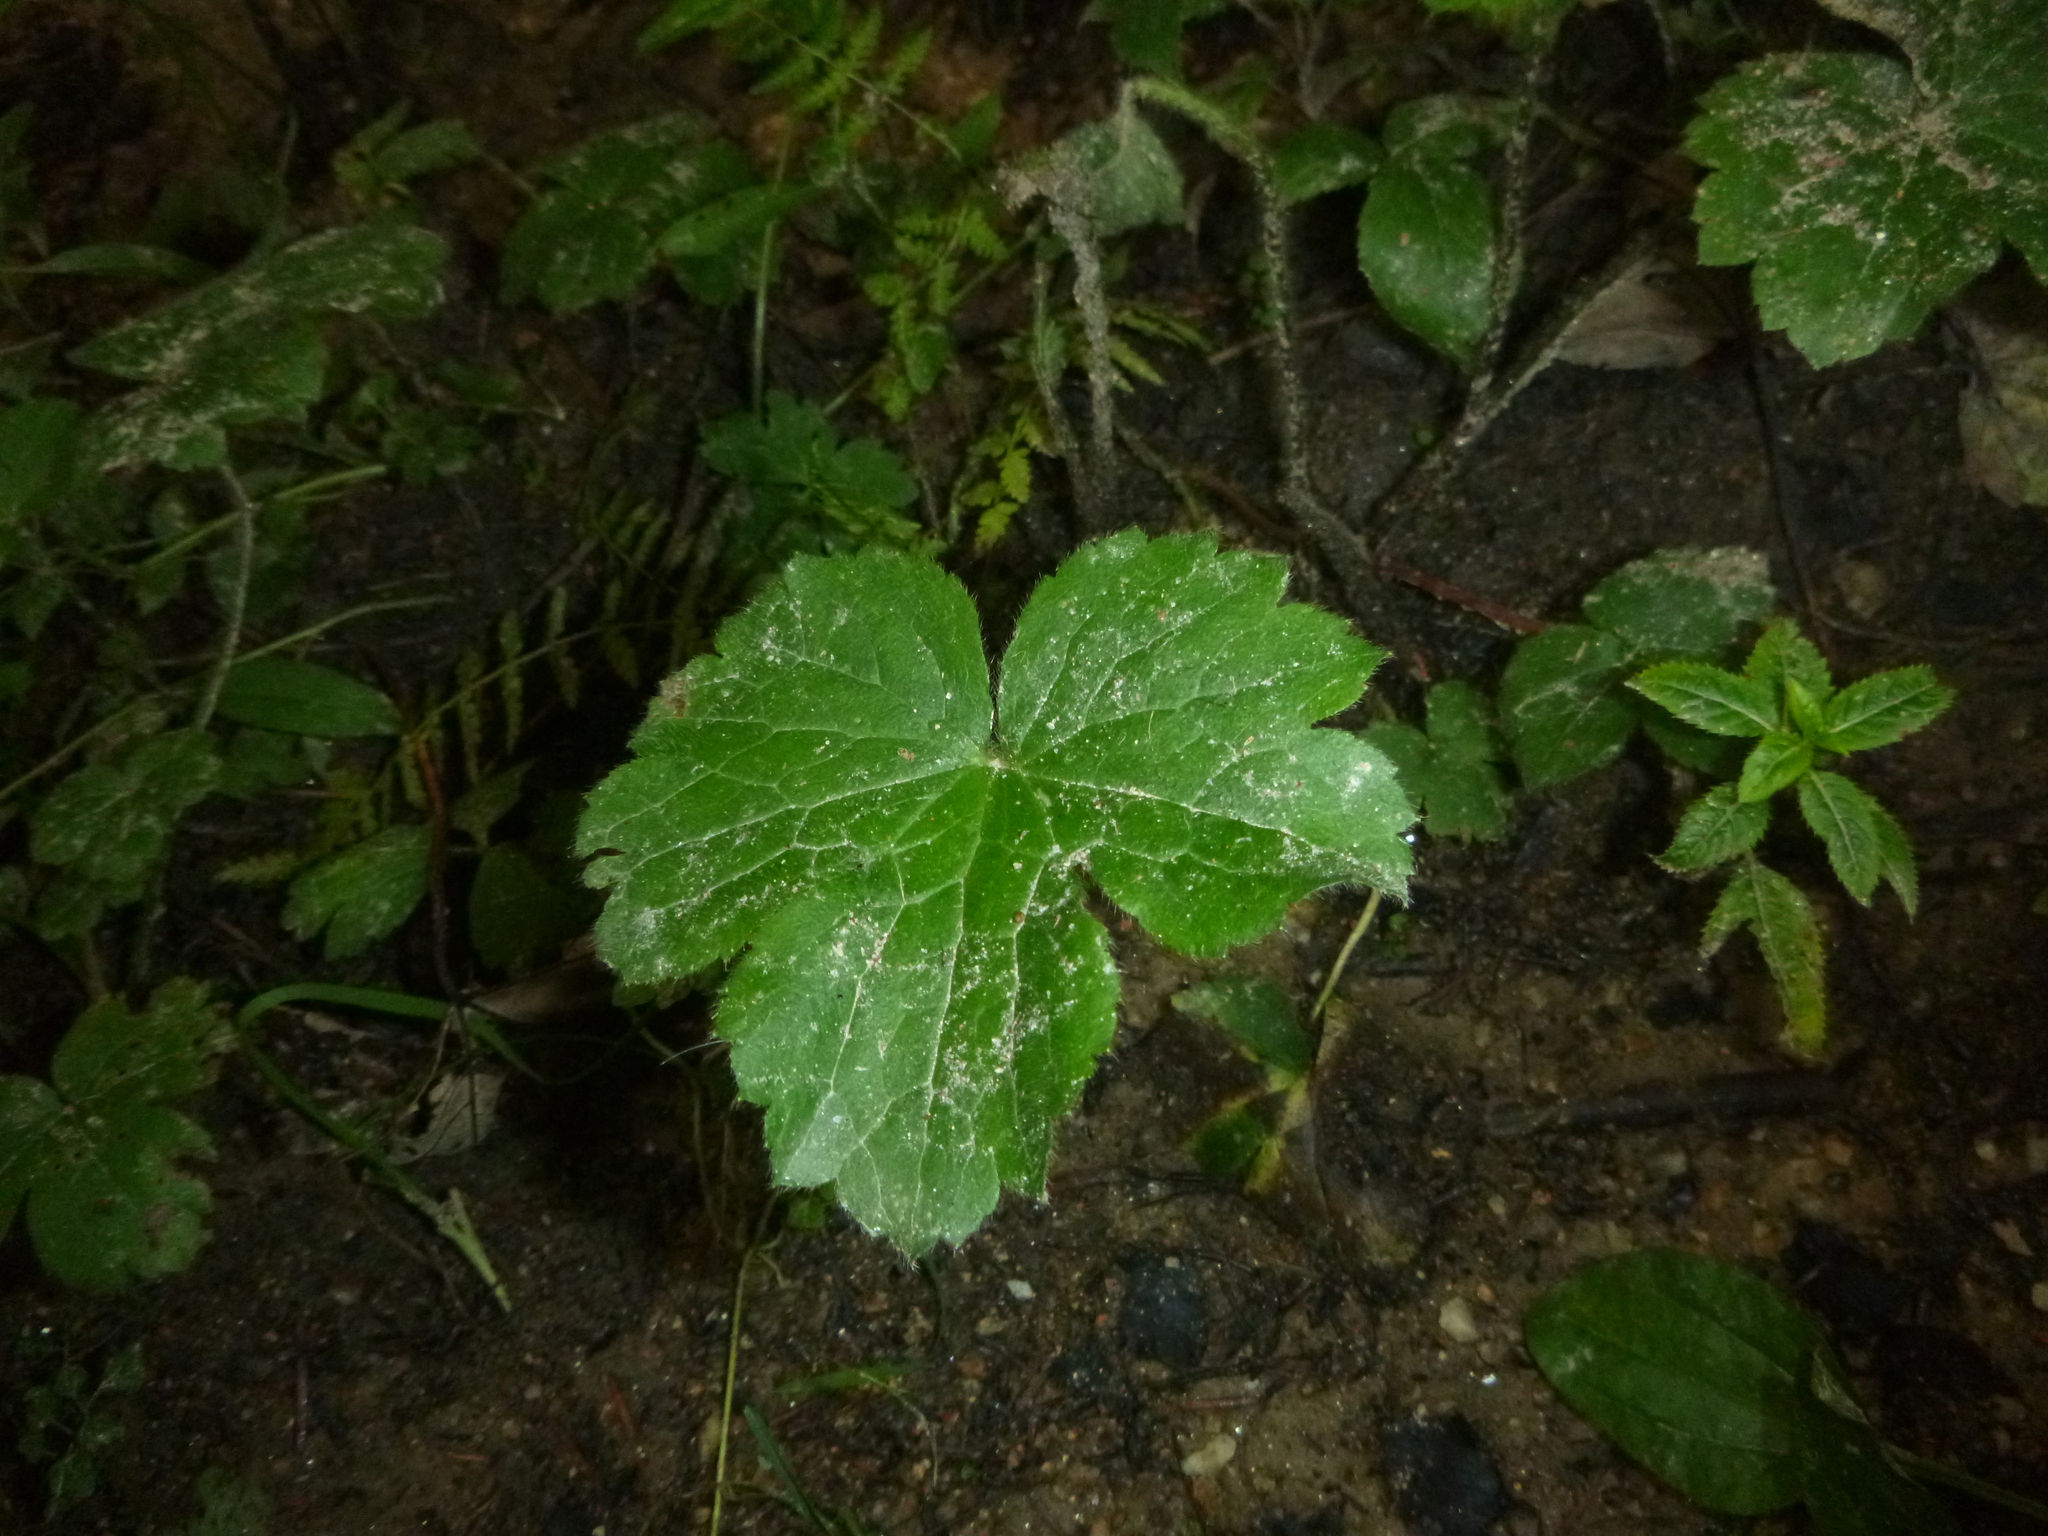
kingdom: Plantae
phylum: Tracheophyta
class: Magnoliopsida
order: Ranunculales
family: Ranunculaceae
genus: Ranunculus
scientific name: Ranunculus lanuginosus
